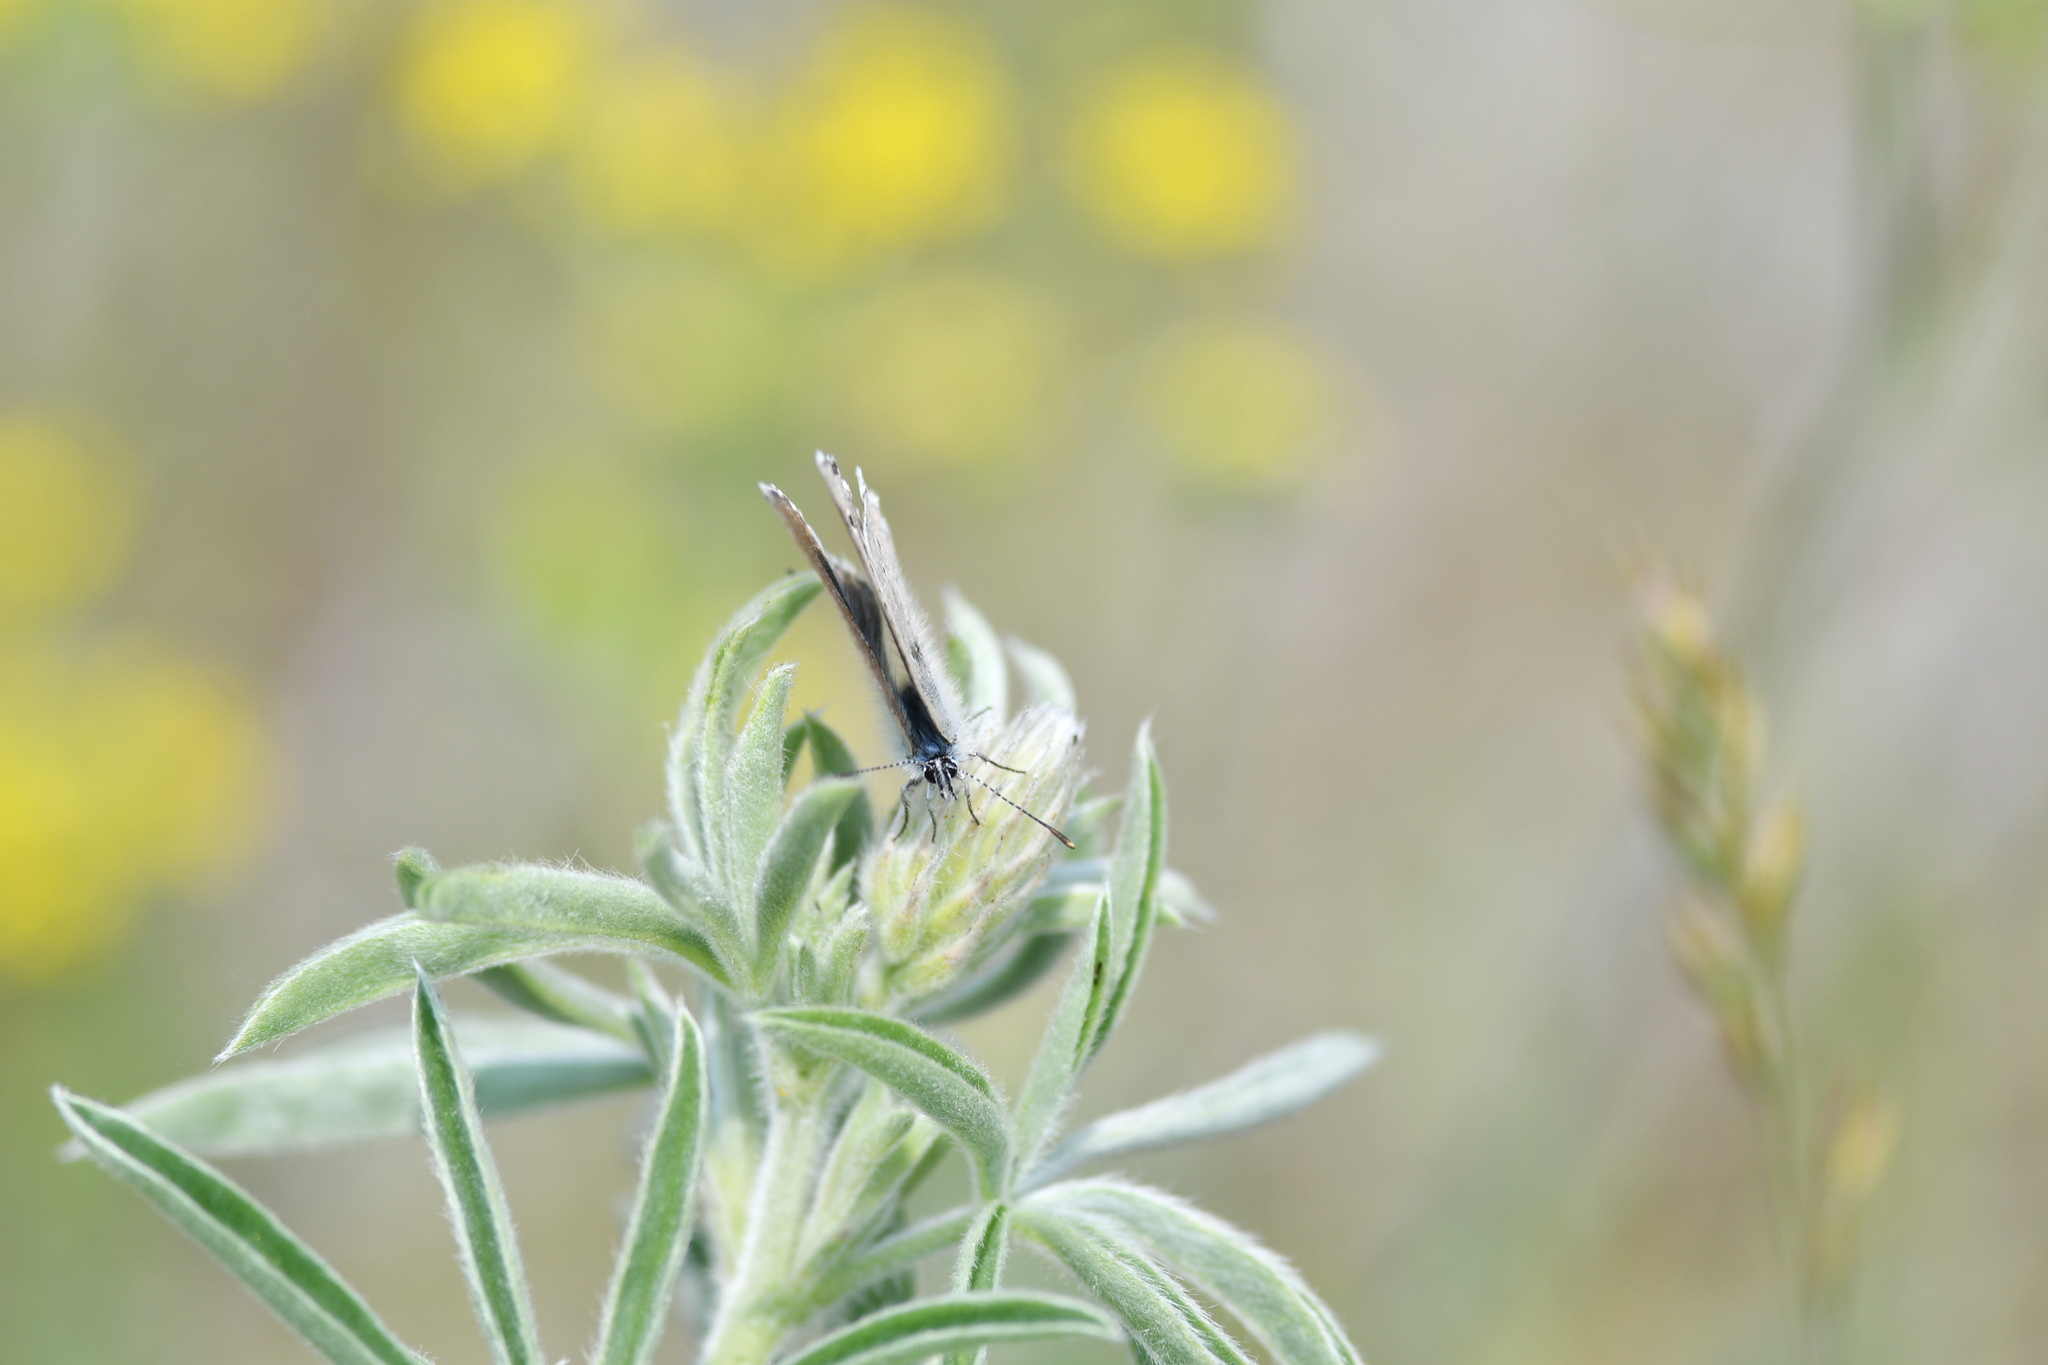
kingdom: Animalia
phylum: Arthropoda
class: Insecta
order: Lepidoptera
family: Lycaenidae
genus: Glaucopsyche
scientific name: Glaucopsyche lygdamus
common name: Silvery blue
